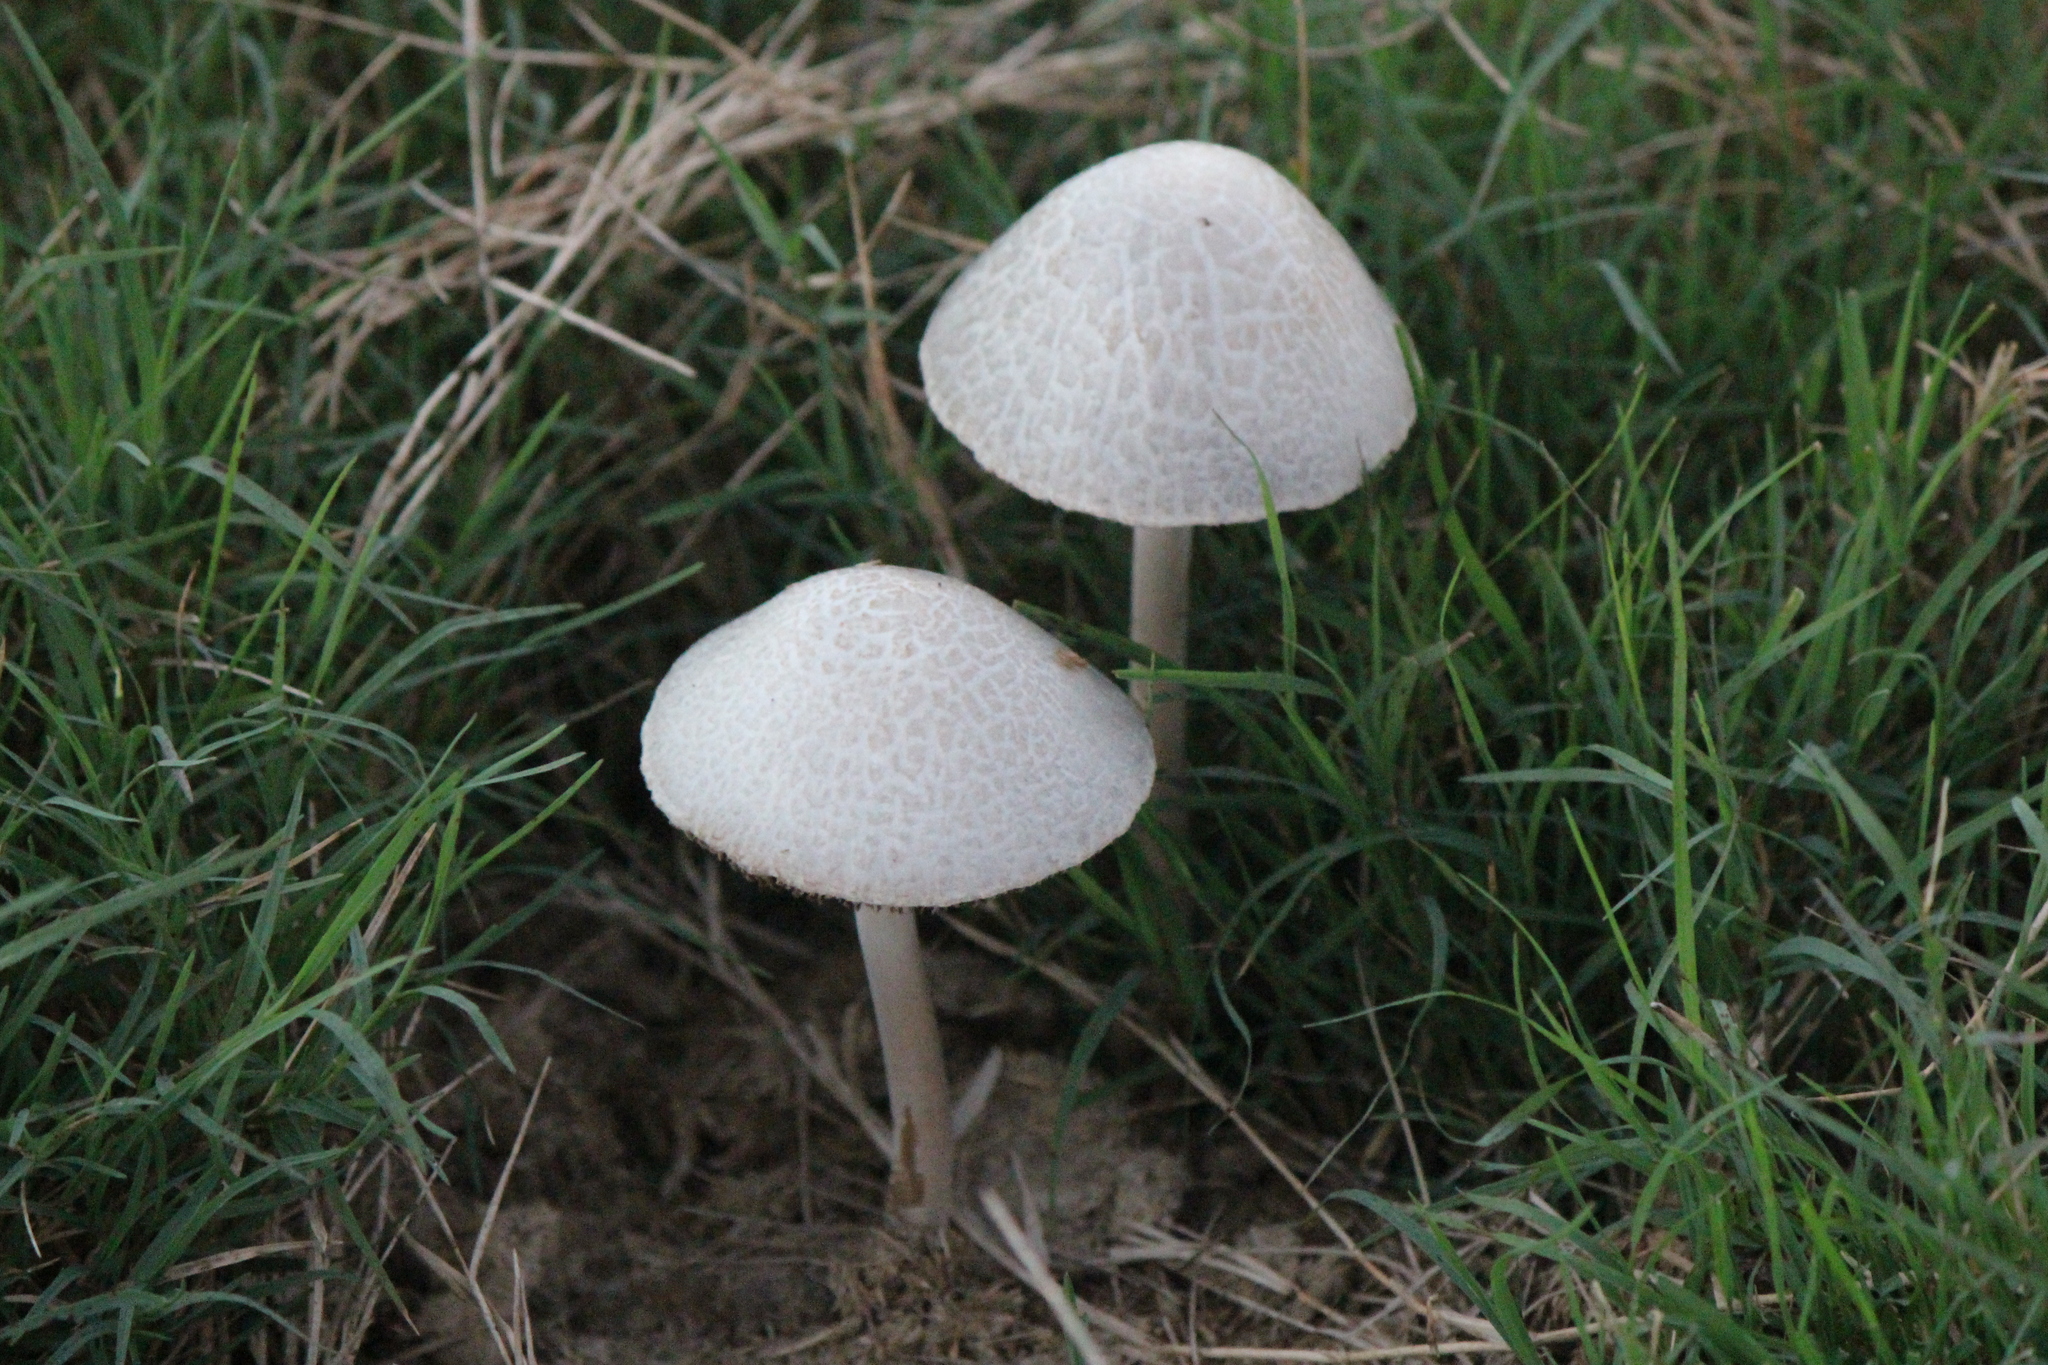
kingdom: Fungi
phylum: Basidiomycota
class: Agaricomycetes
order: Agaricales
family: Bolbitiaceae
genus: Panaeolus
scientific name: Panaeolus antillarum
